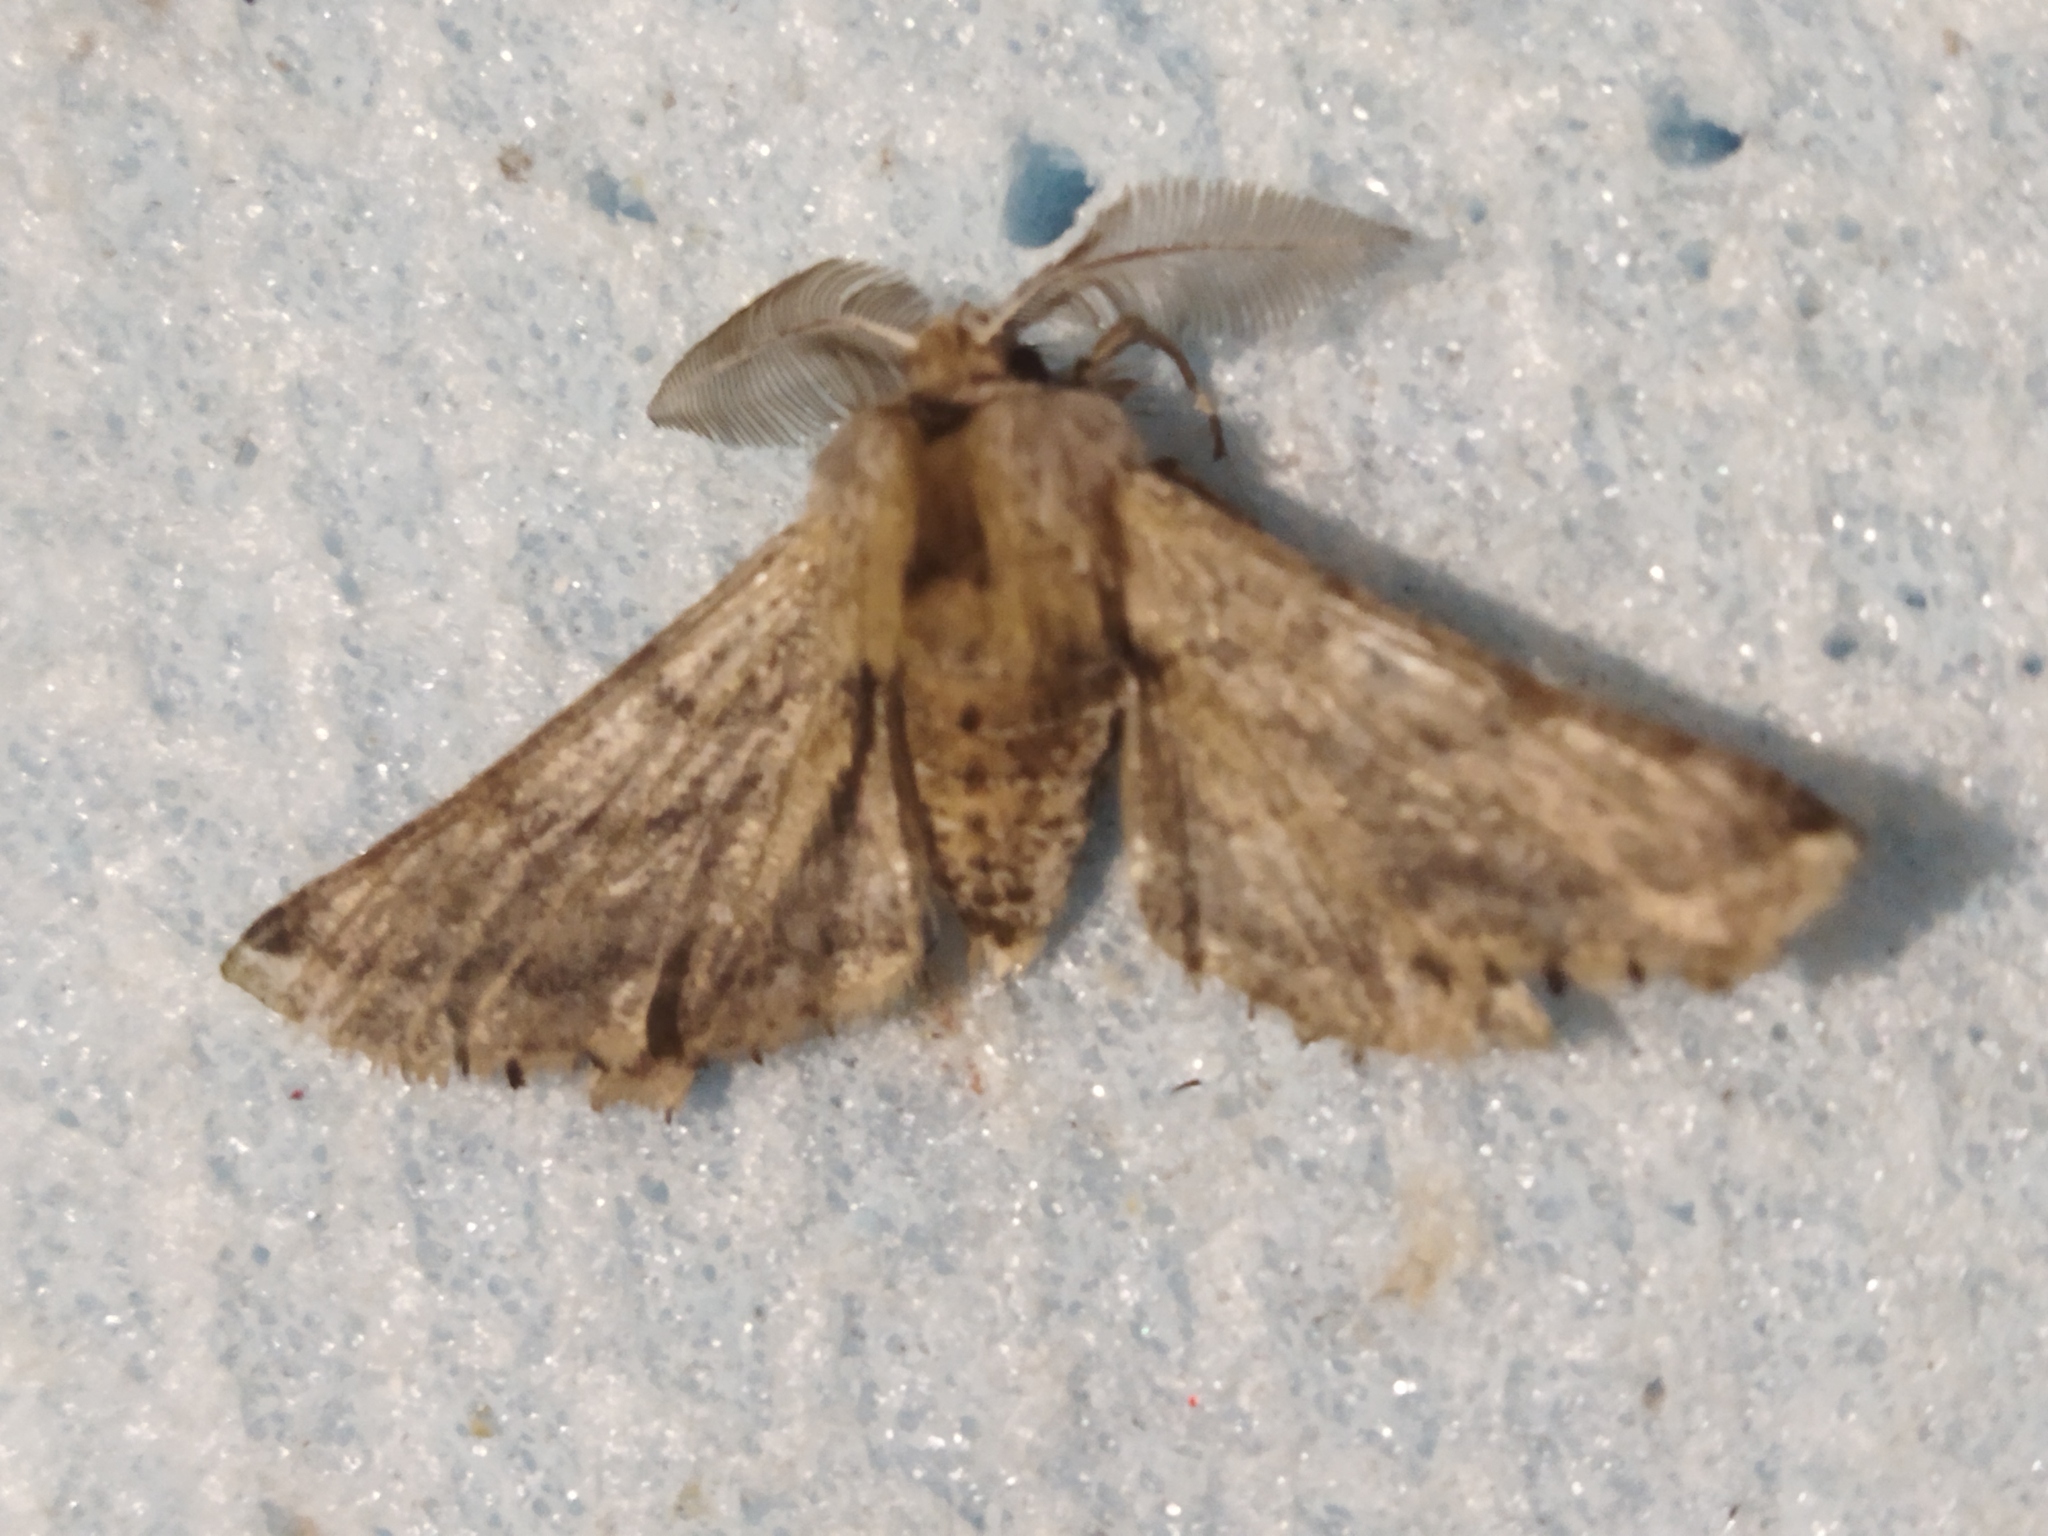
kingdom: Animalia
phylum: Arthropoda
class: Insecta
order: Lepidoptera
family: Geometridae
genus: Apochima
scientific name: Apochima flabellaria
